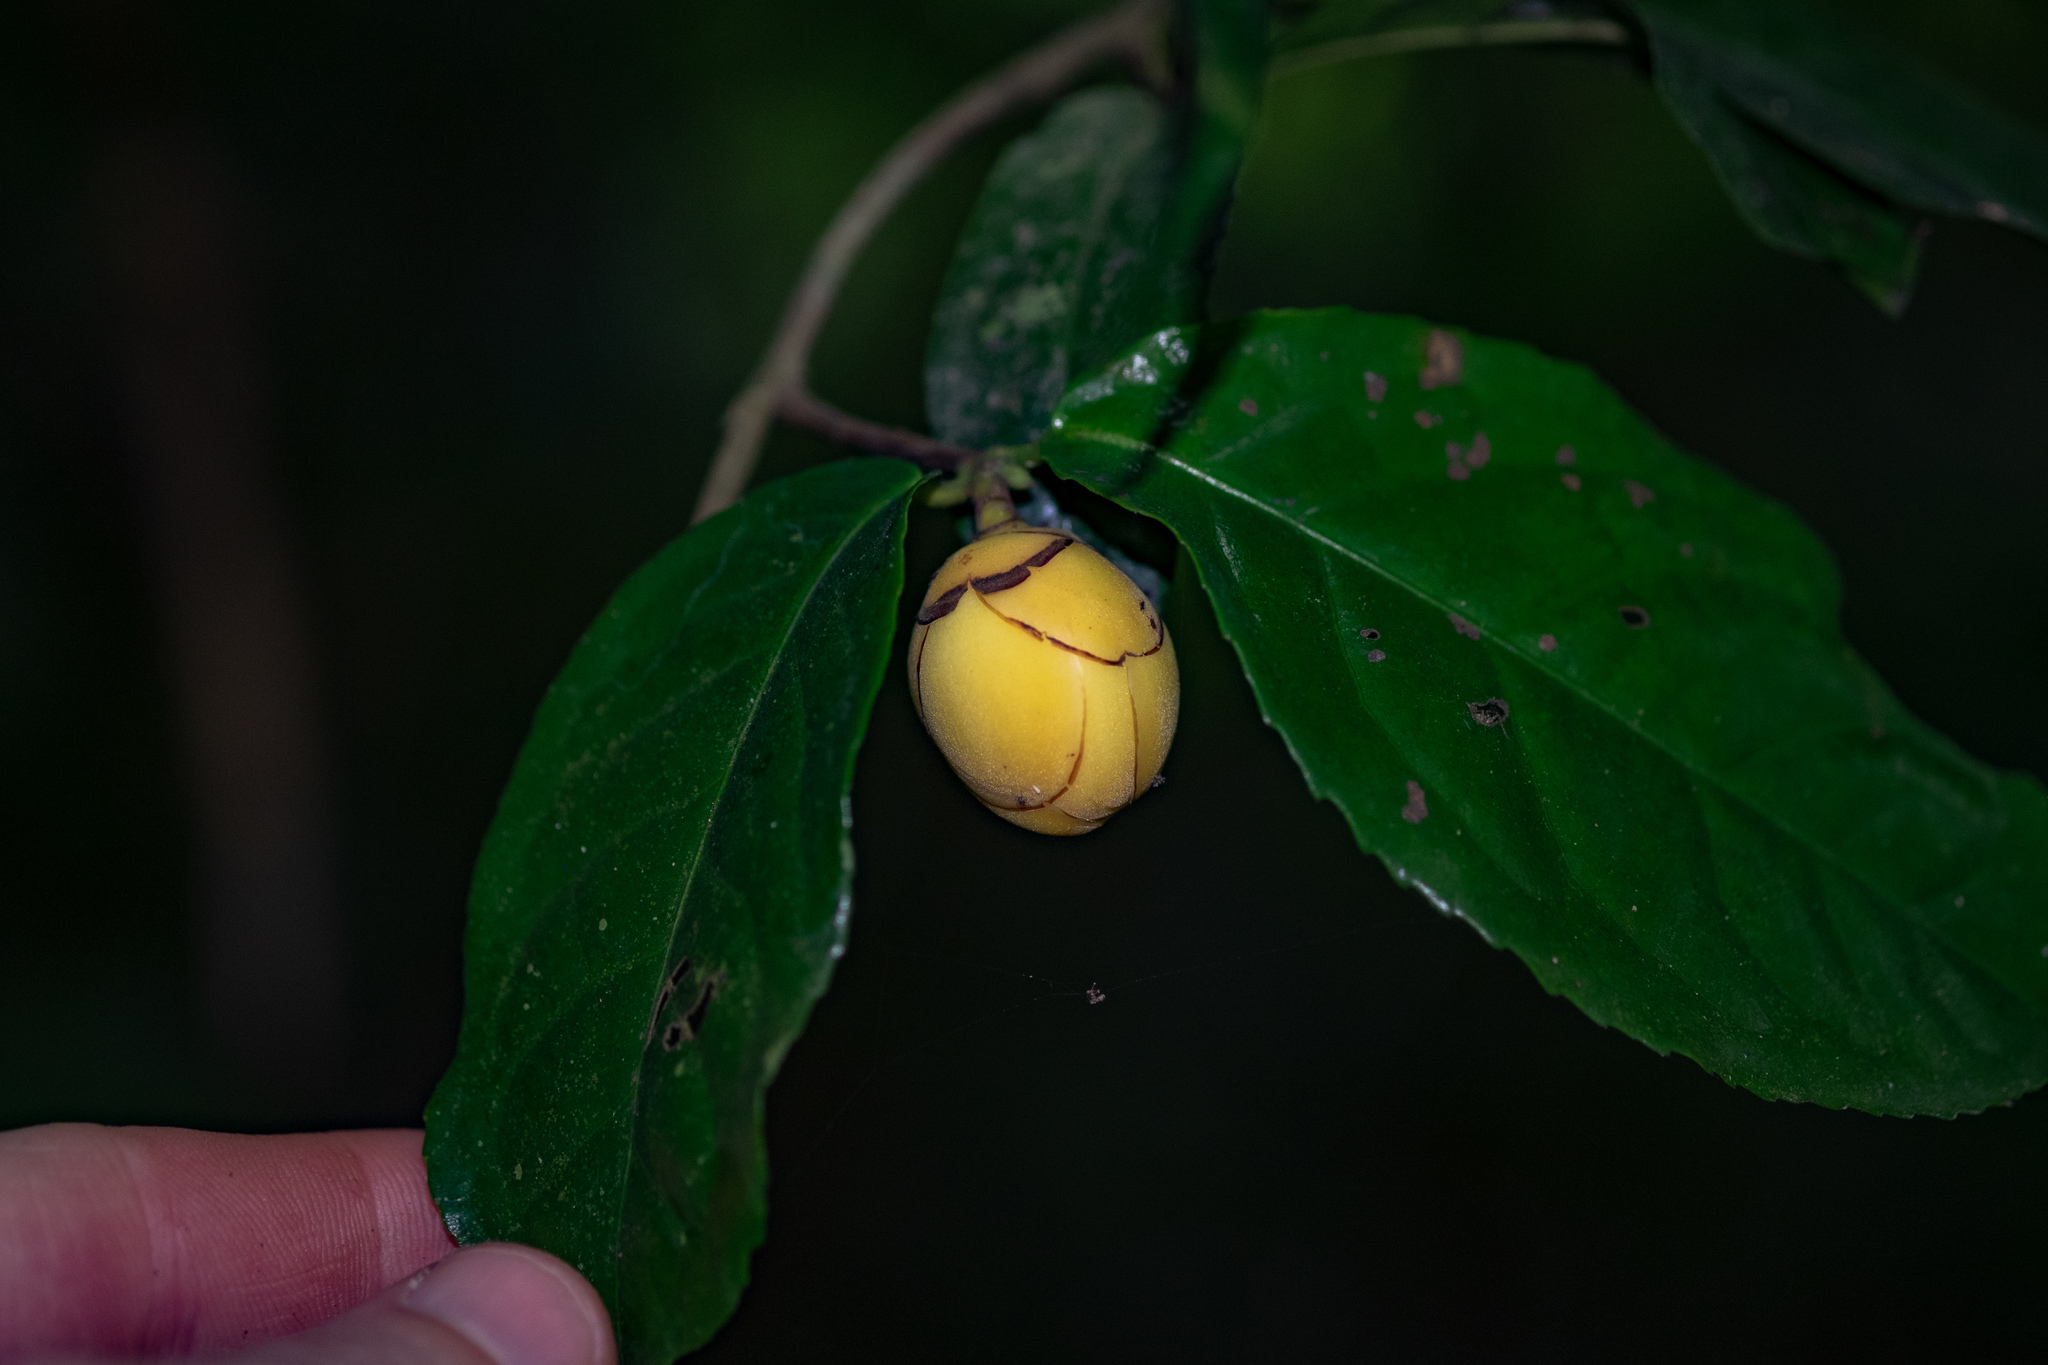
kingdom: Plantae
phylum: Tracheophyta
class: Magnoliopsida
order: Ericales
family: Theaceae
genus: Camellia
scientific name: Camellia flava
